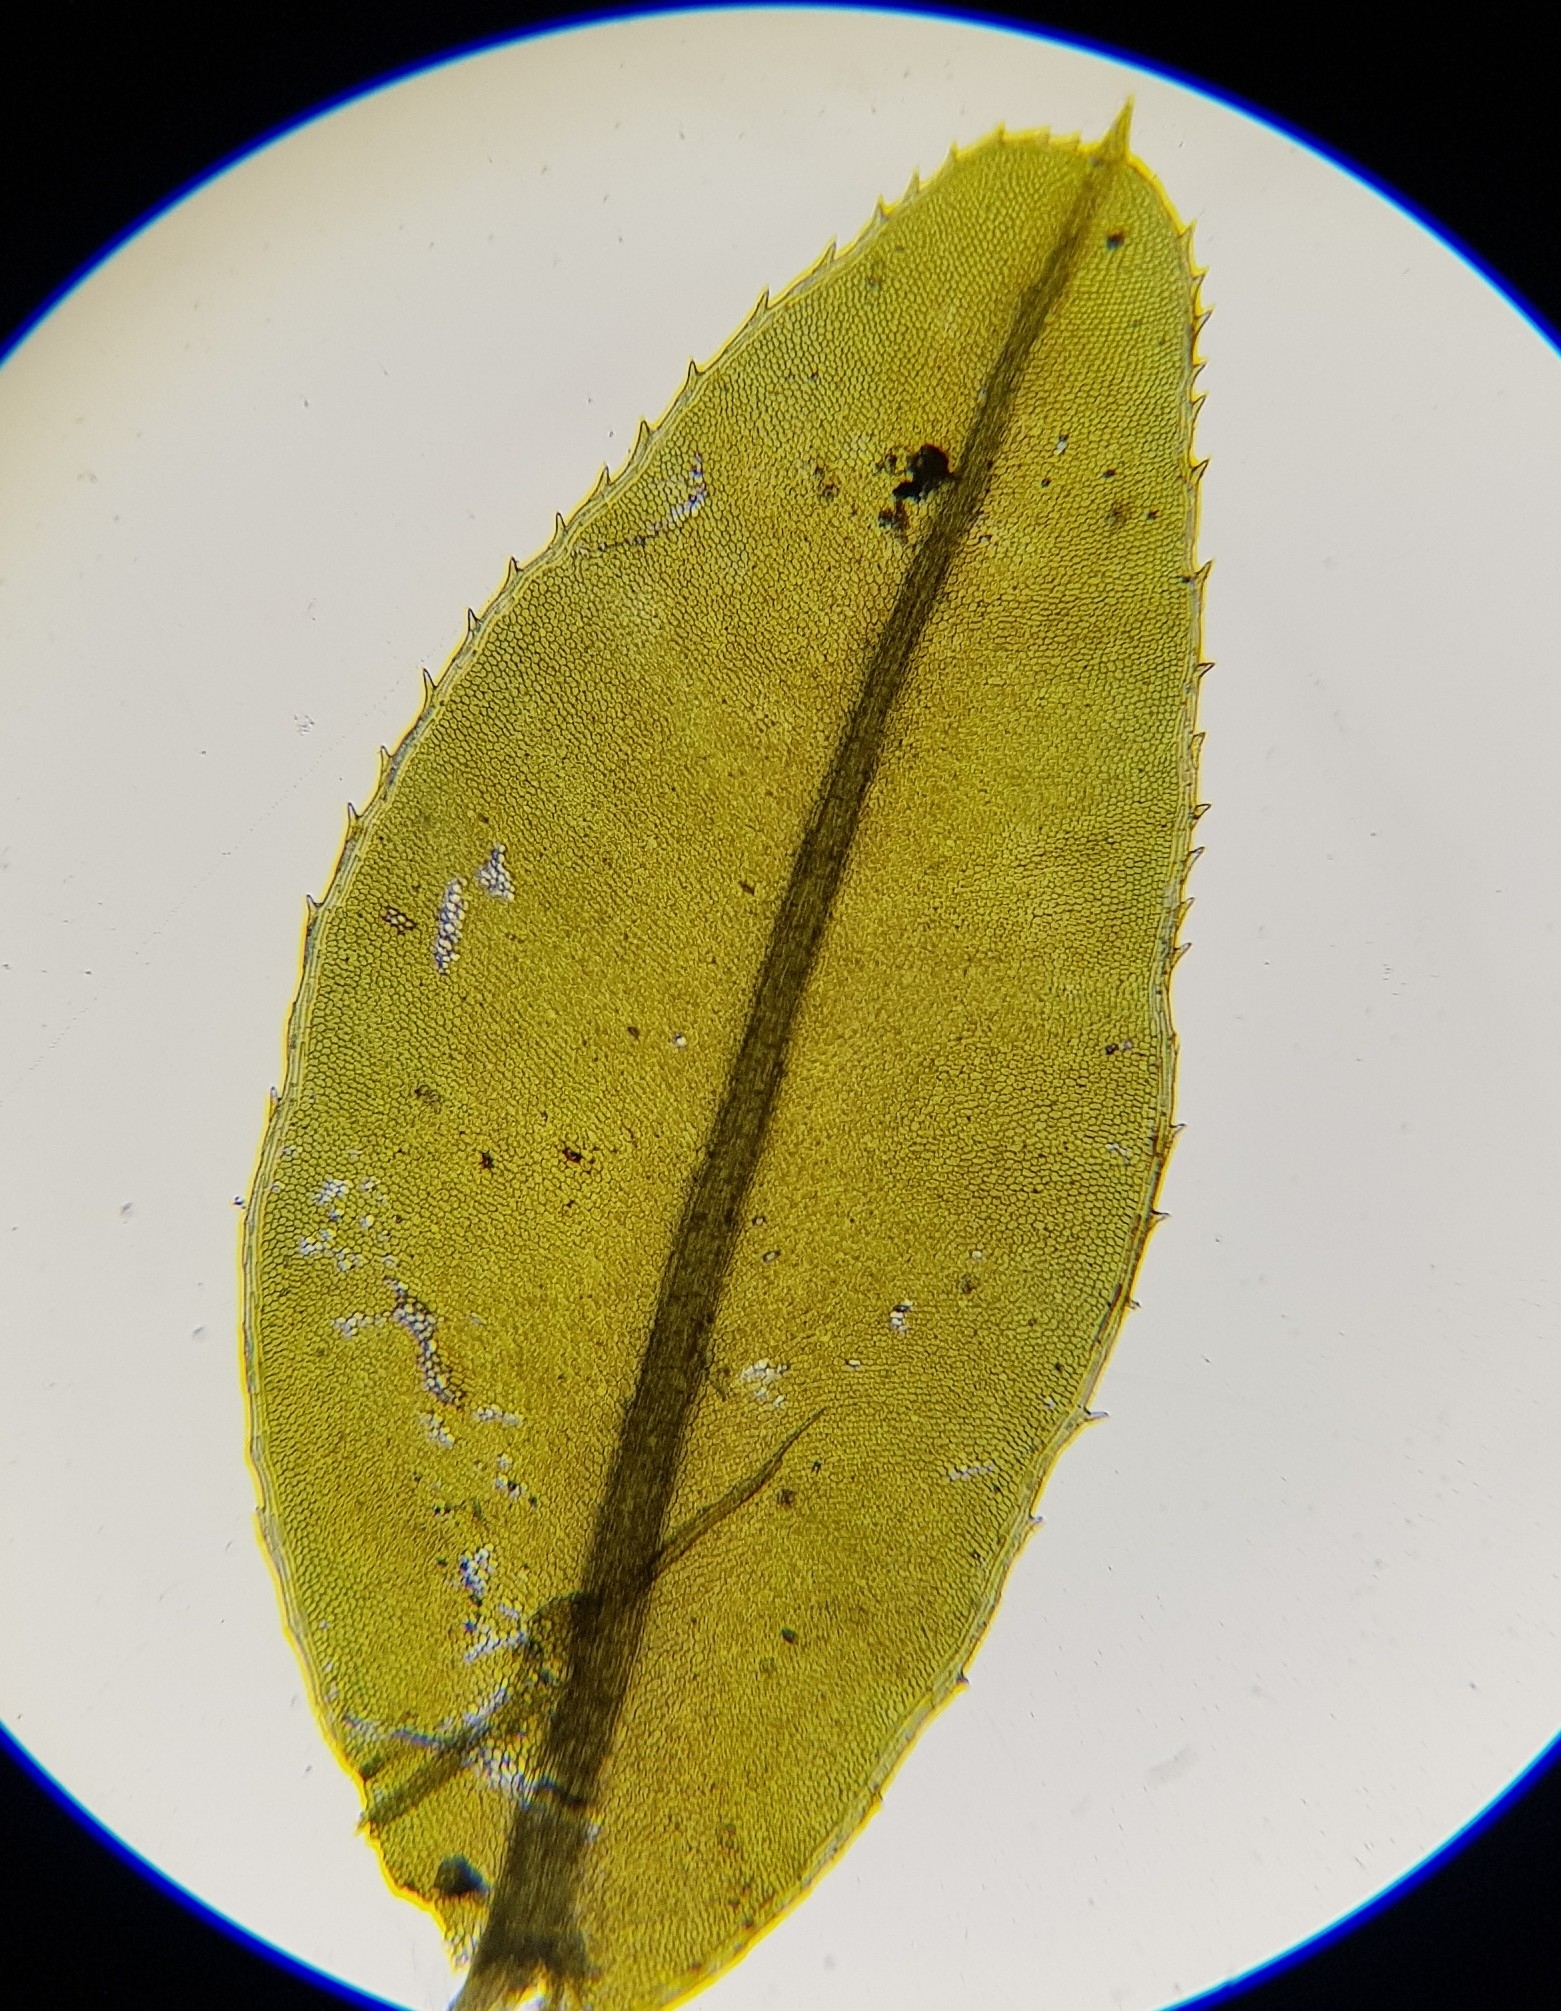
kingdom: Plantae
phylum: Bryophyta
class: Bryopsida
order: Bryales
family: Mniaceae
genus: Plagiomnium
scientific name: Plagiomnium undulatum
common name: Hart's-tongue thyme-moss
